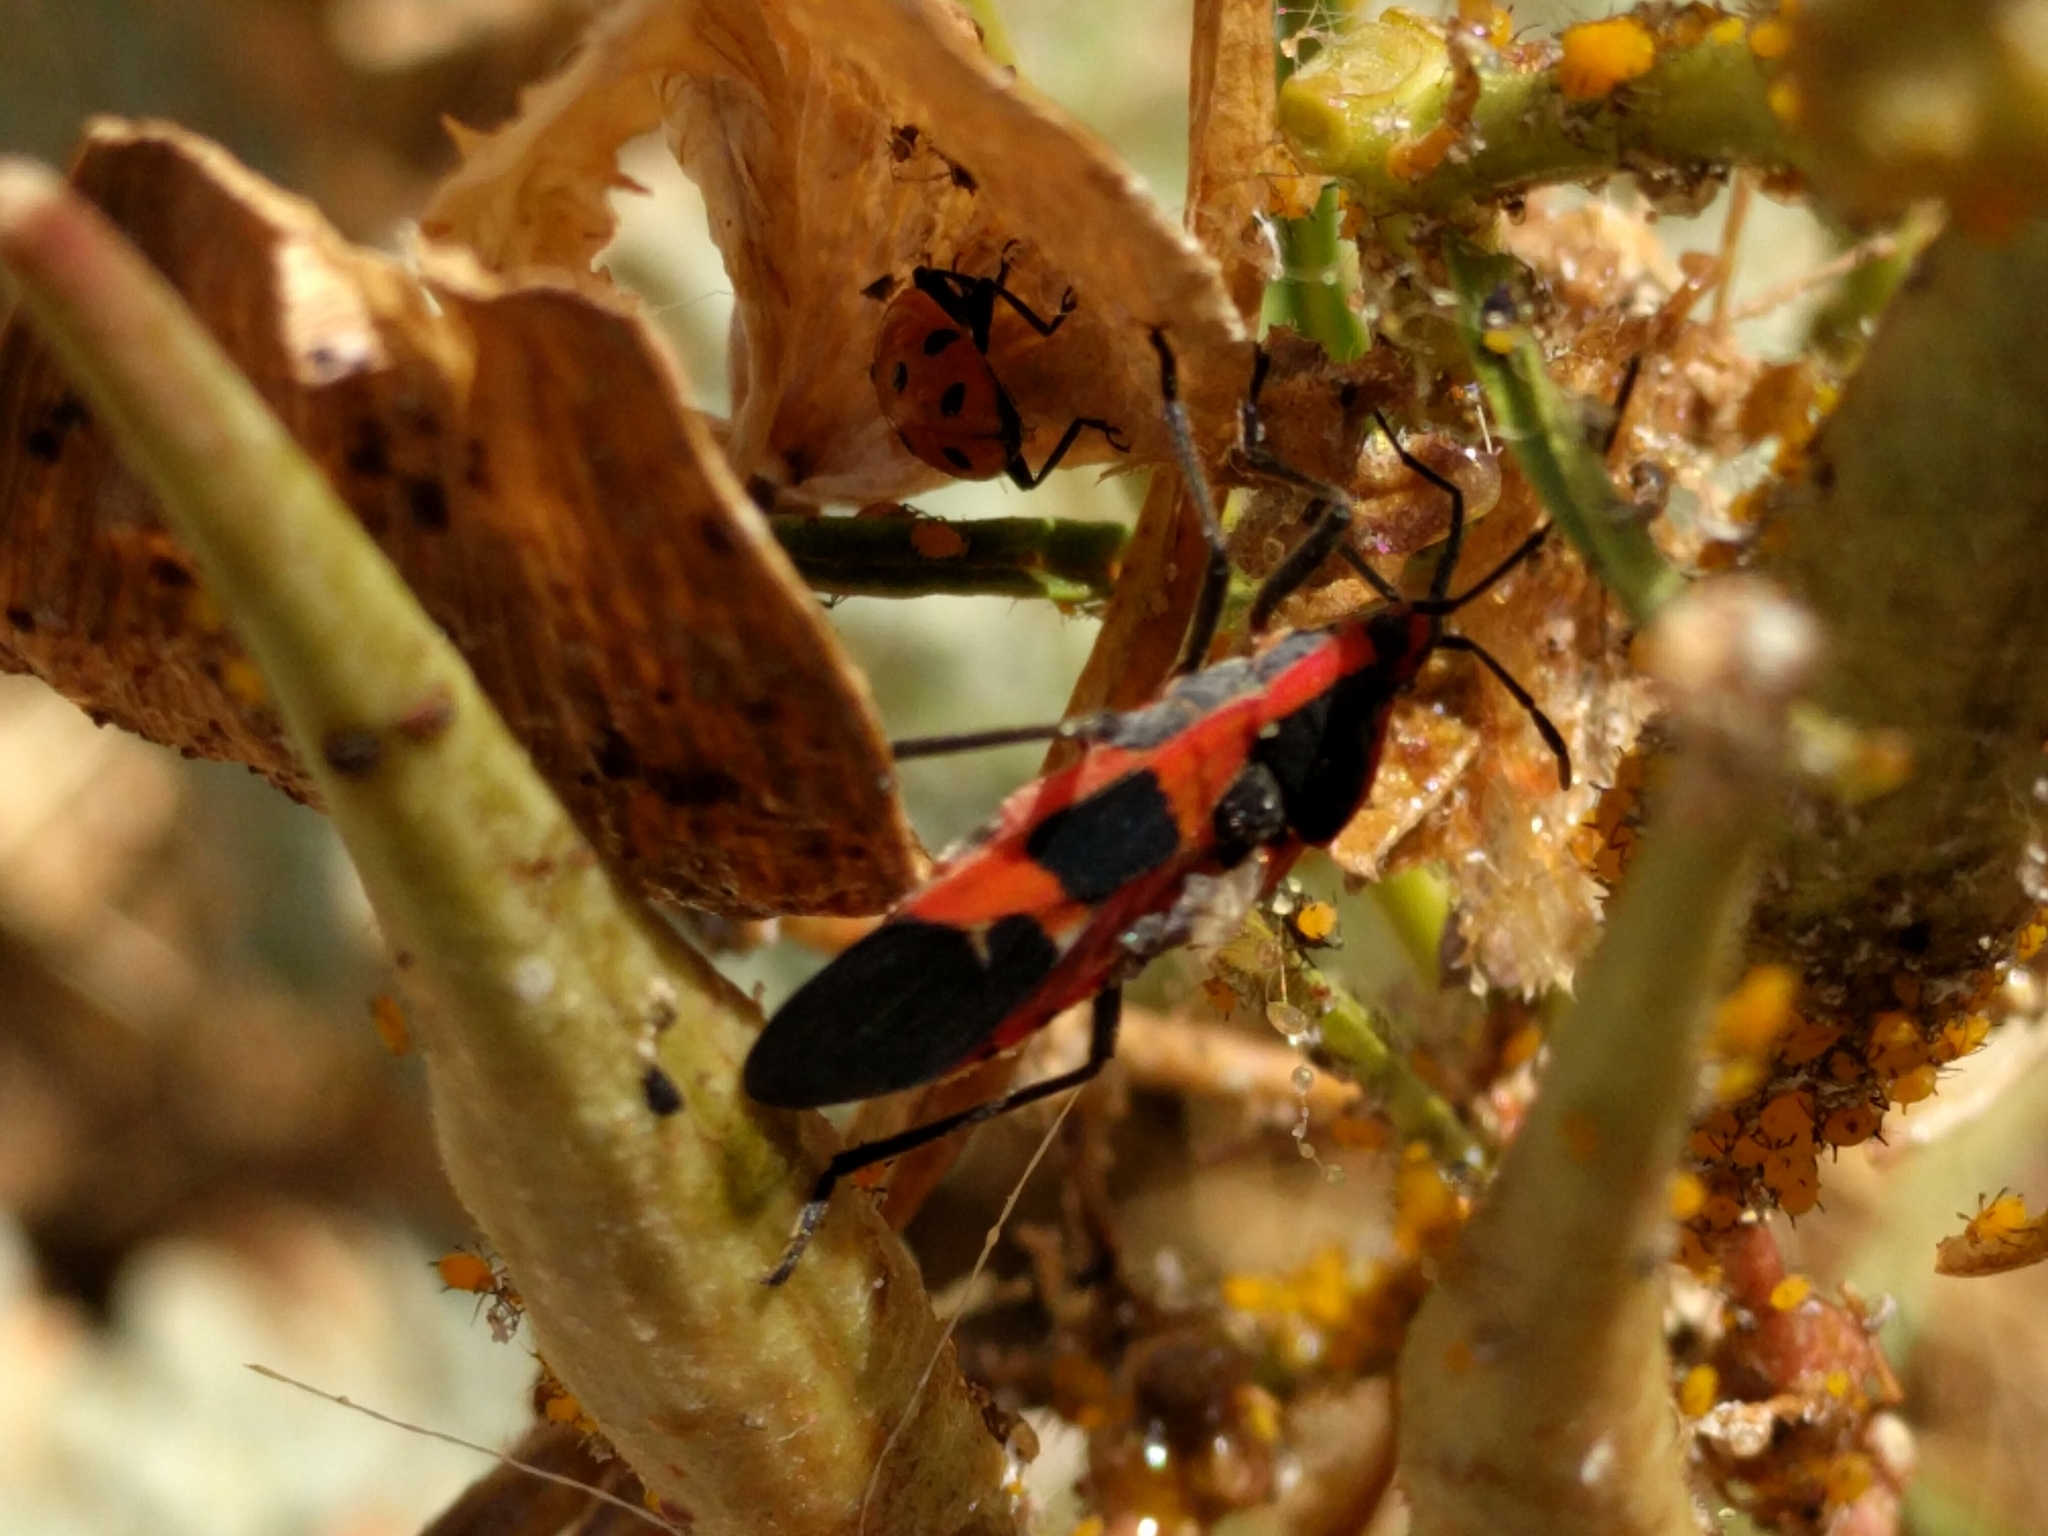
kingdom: Animalia
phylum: Arthropoda
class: Insecta
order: Hemiptera
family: Lygaeidae
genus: Oncopeltus
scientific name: Oncopeltus fasciatus
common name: Large milkweed bug
